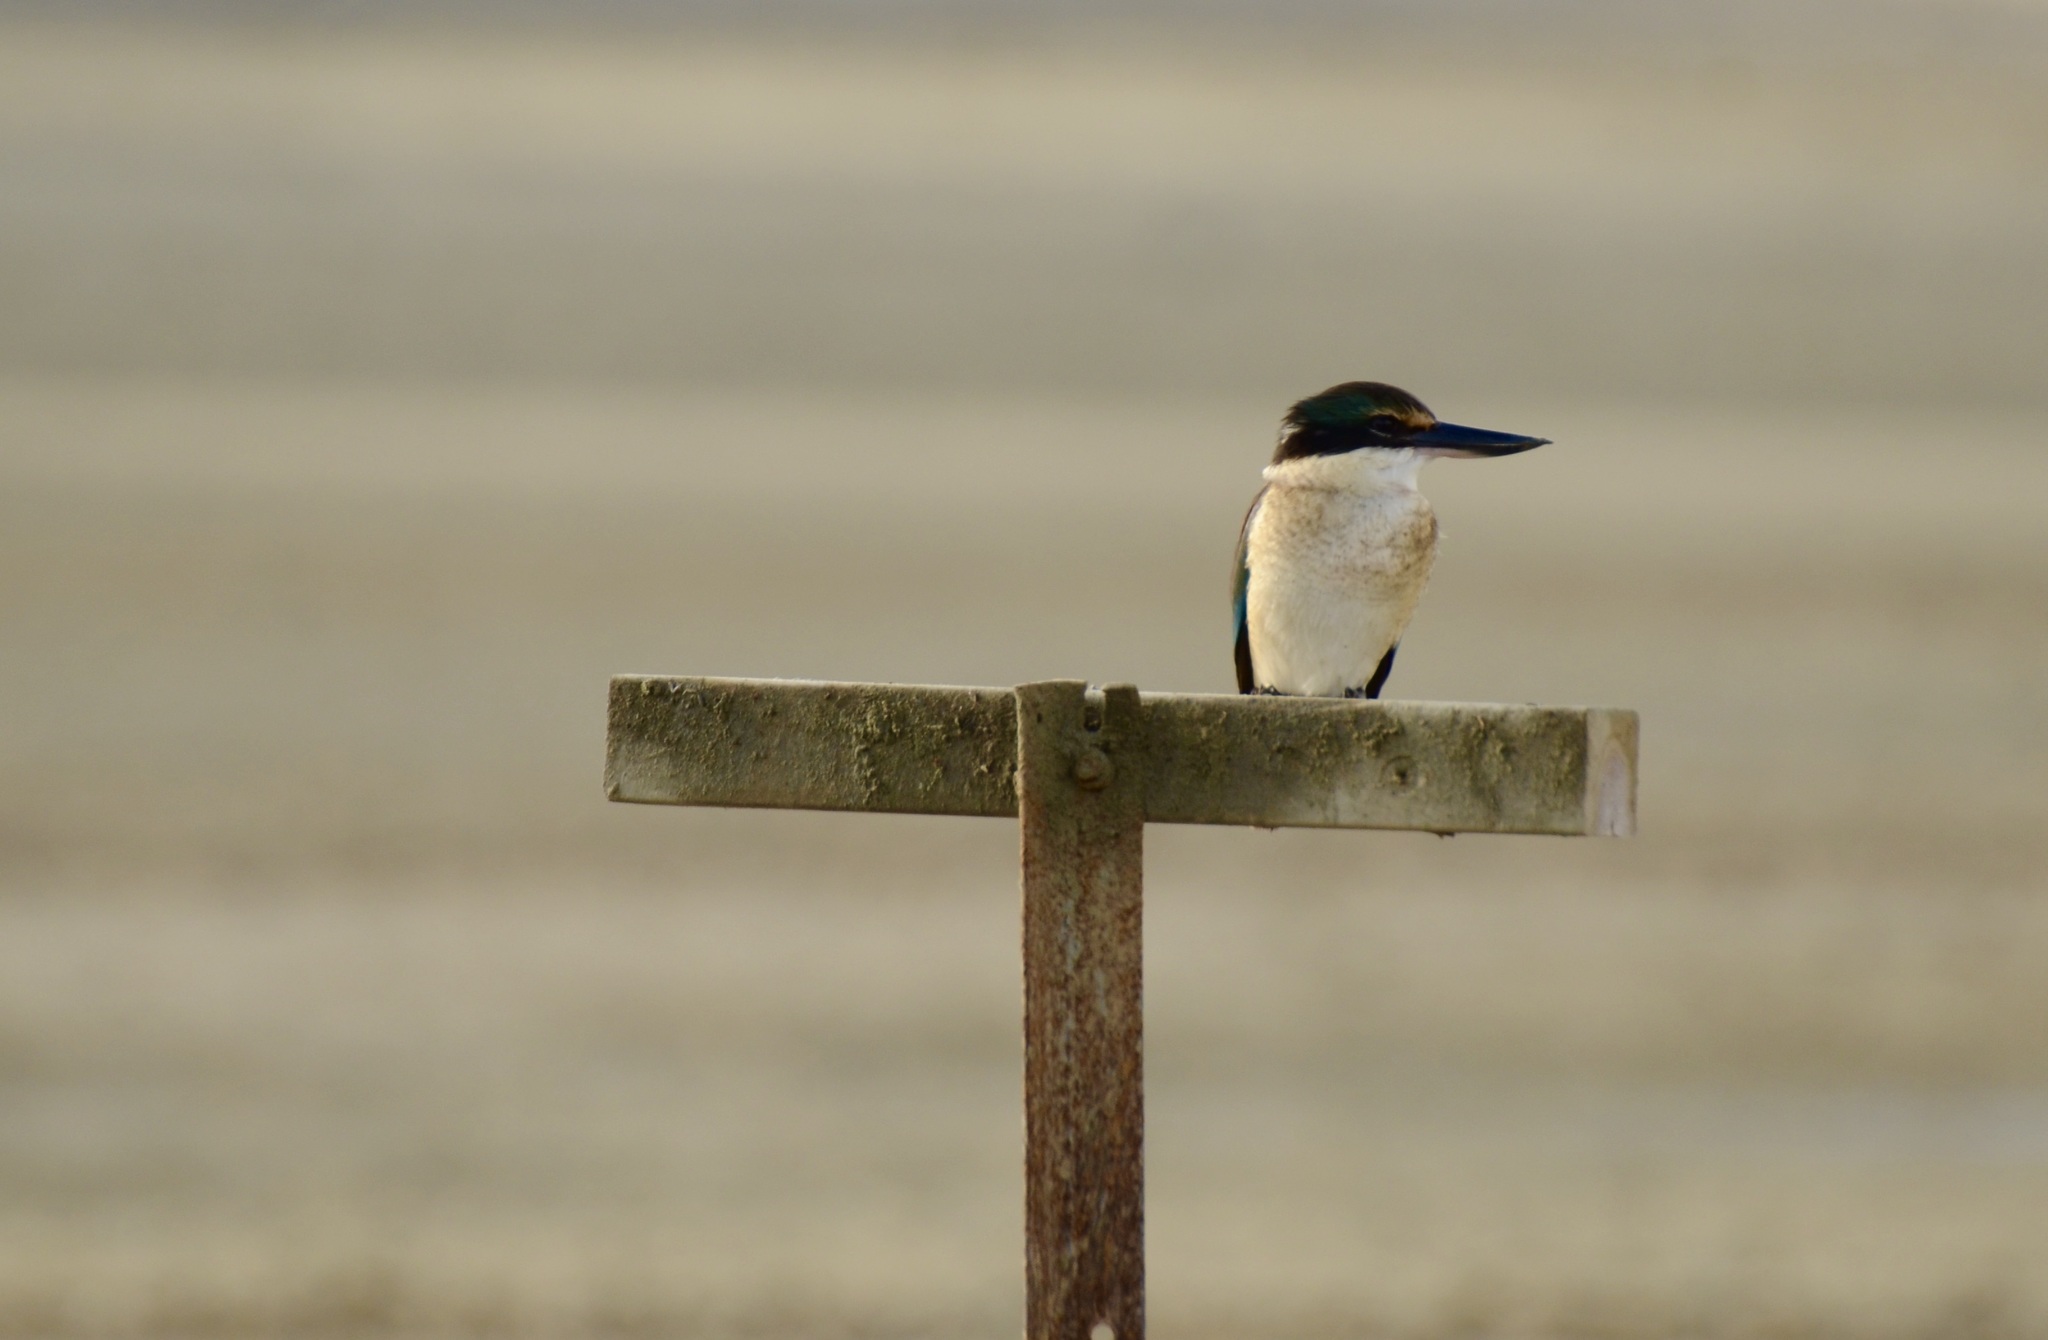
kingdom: Animalia
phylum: Chordata
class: Aves
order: Coraciiformes
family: Alcedinidae
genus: Todiramphus
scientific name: Todiramphus sanctus
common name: Sacred kingfisher
